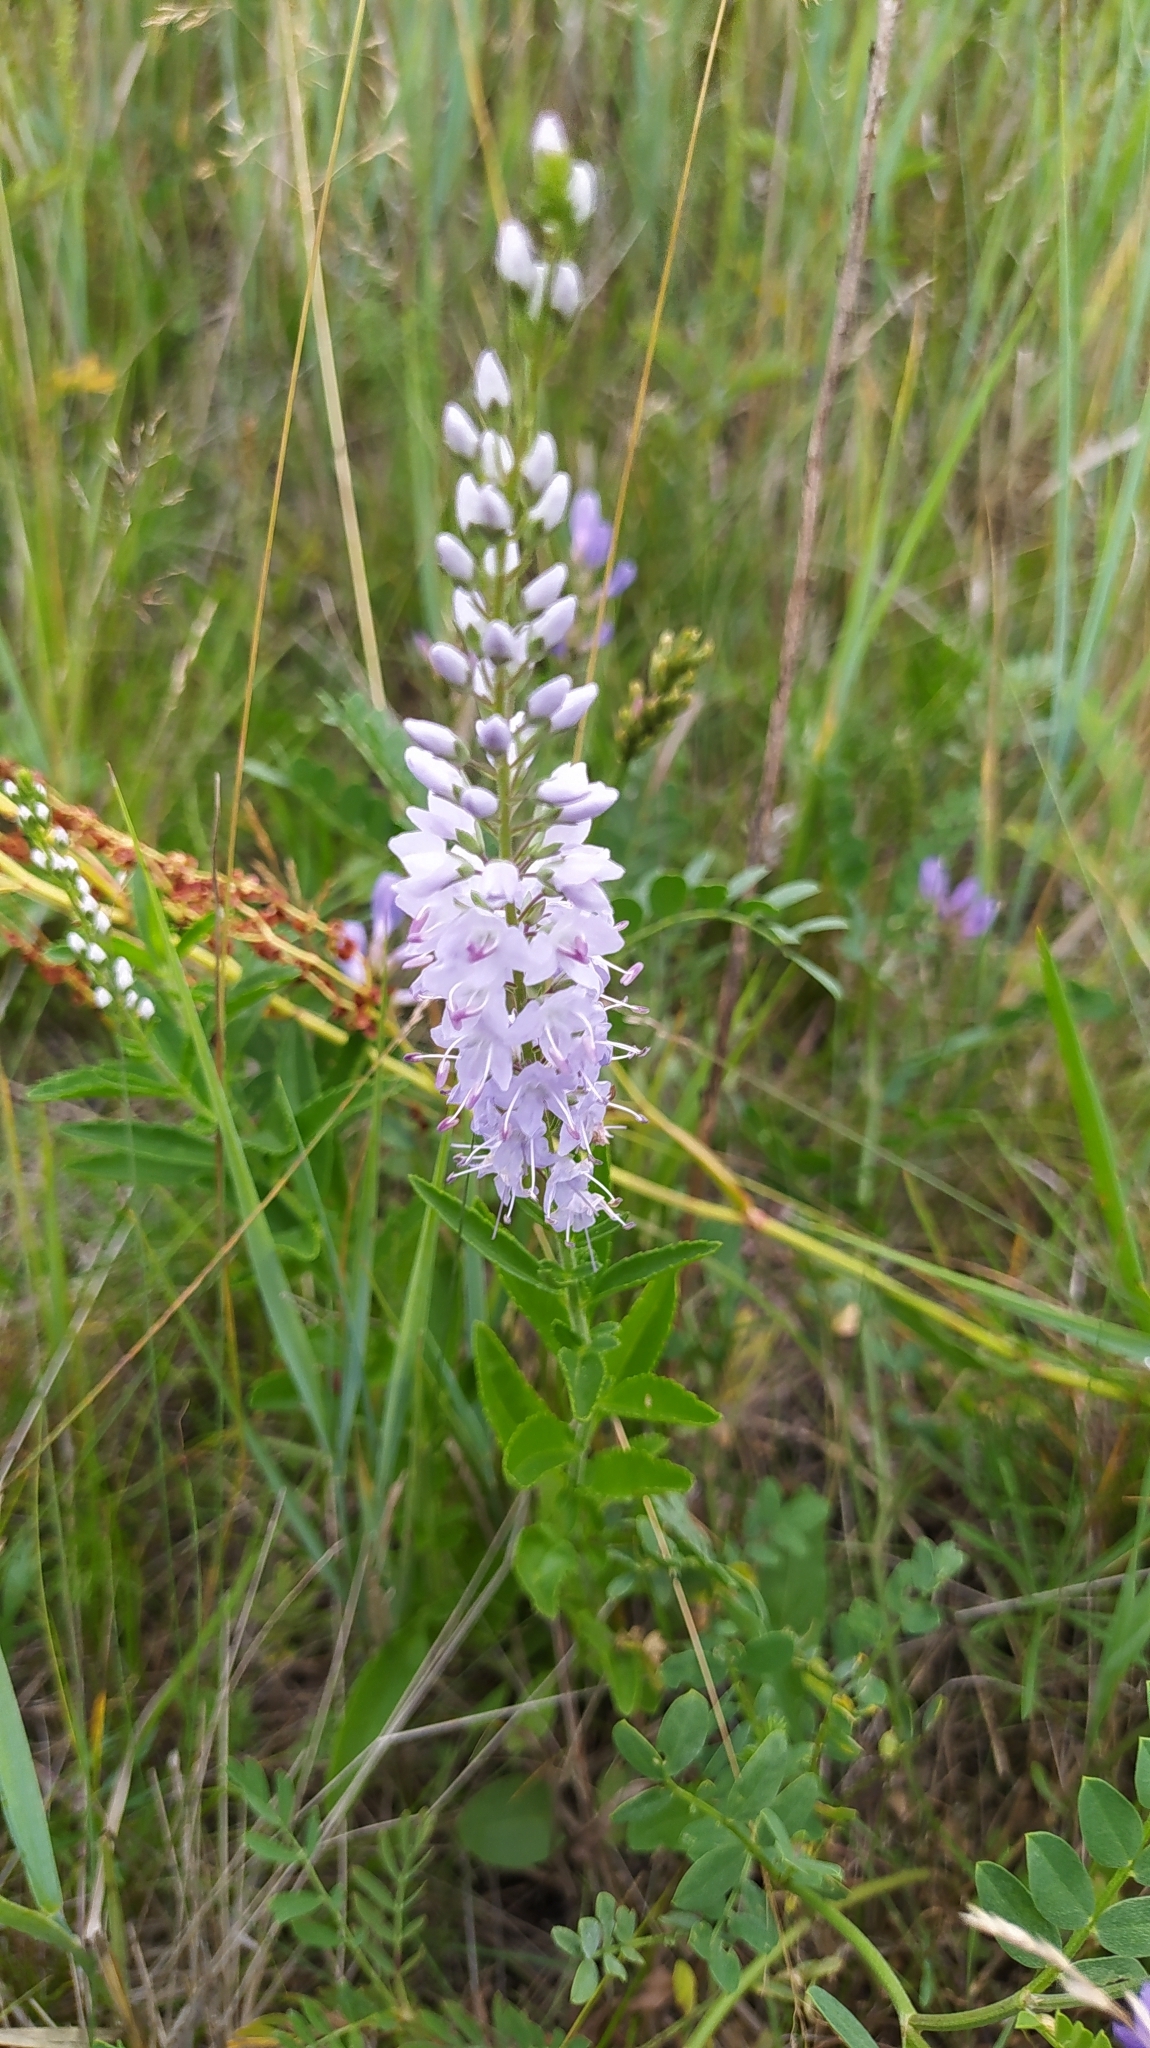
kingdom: Plantae
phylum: Tracheophyta
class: Magnoliopsida
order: Lamiales
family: Plantaginaceae
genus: Veronica
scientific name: Veronica linariifolia
